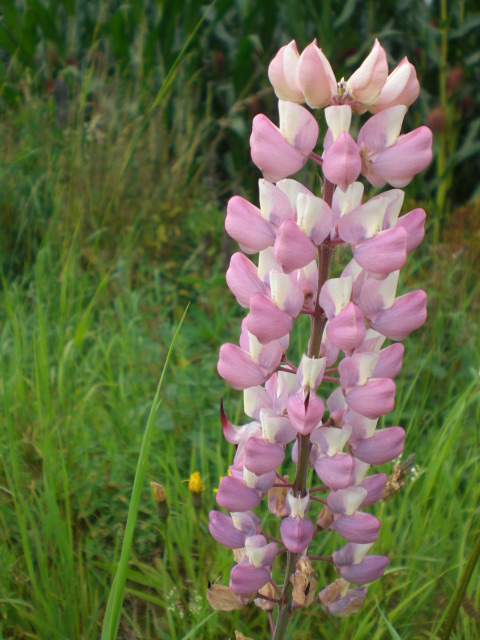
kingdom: Plantae
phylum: Tracheophyta
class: Magnoliopsida
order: Fabales
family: Fabaceae
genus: Lupinus
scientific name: Lupinus polyphyllus
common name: Garden lupin
